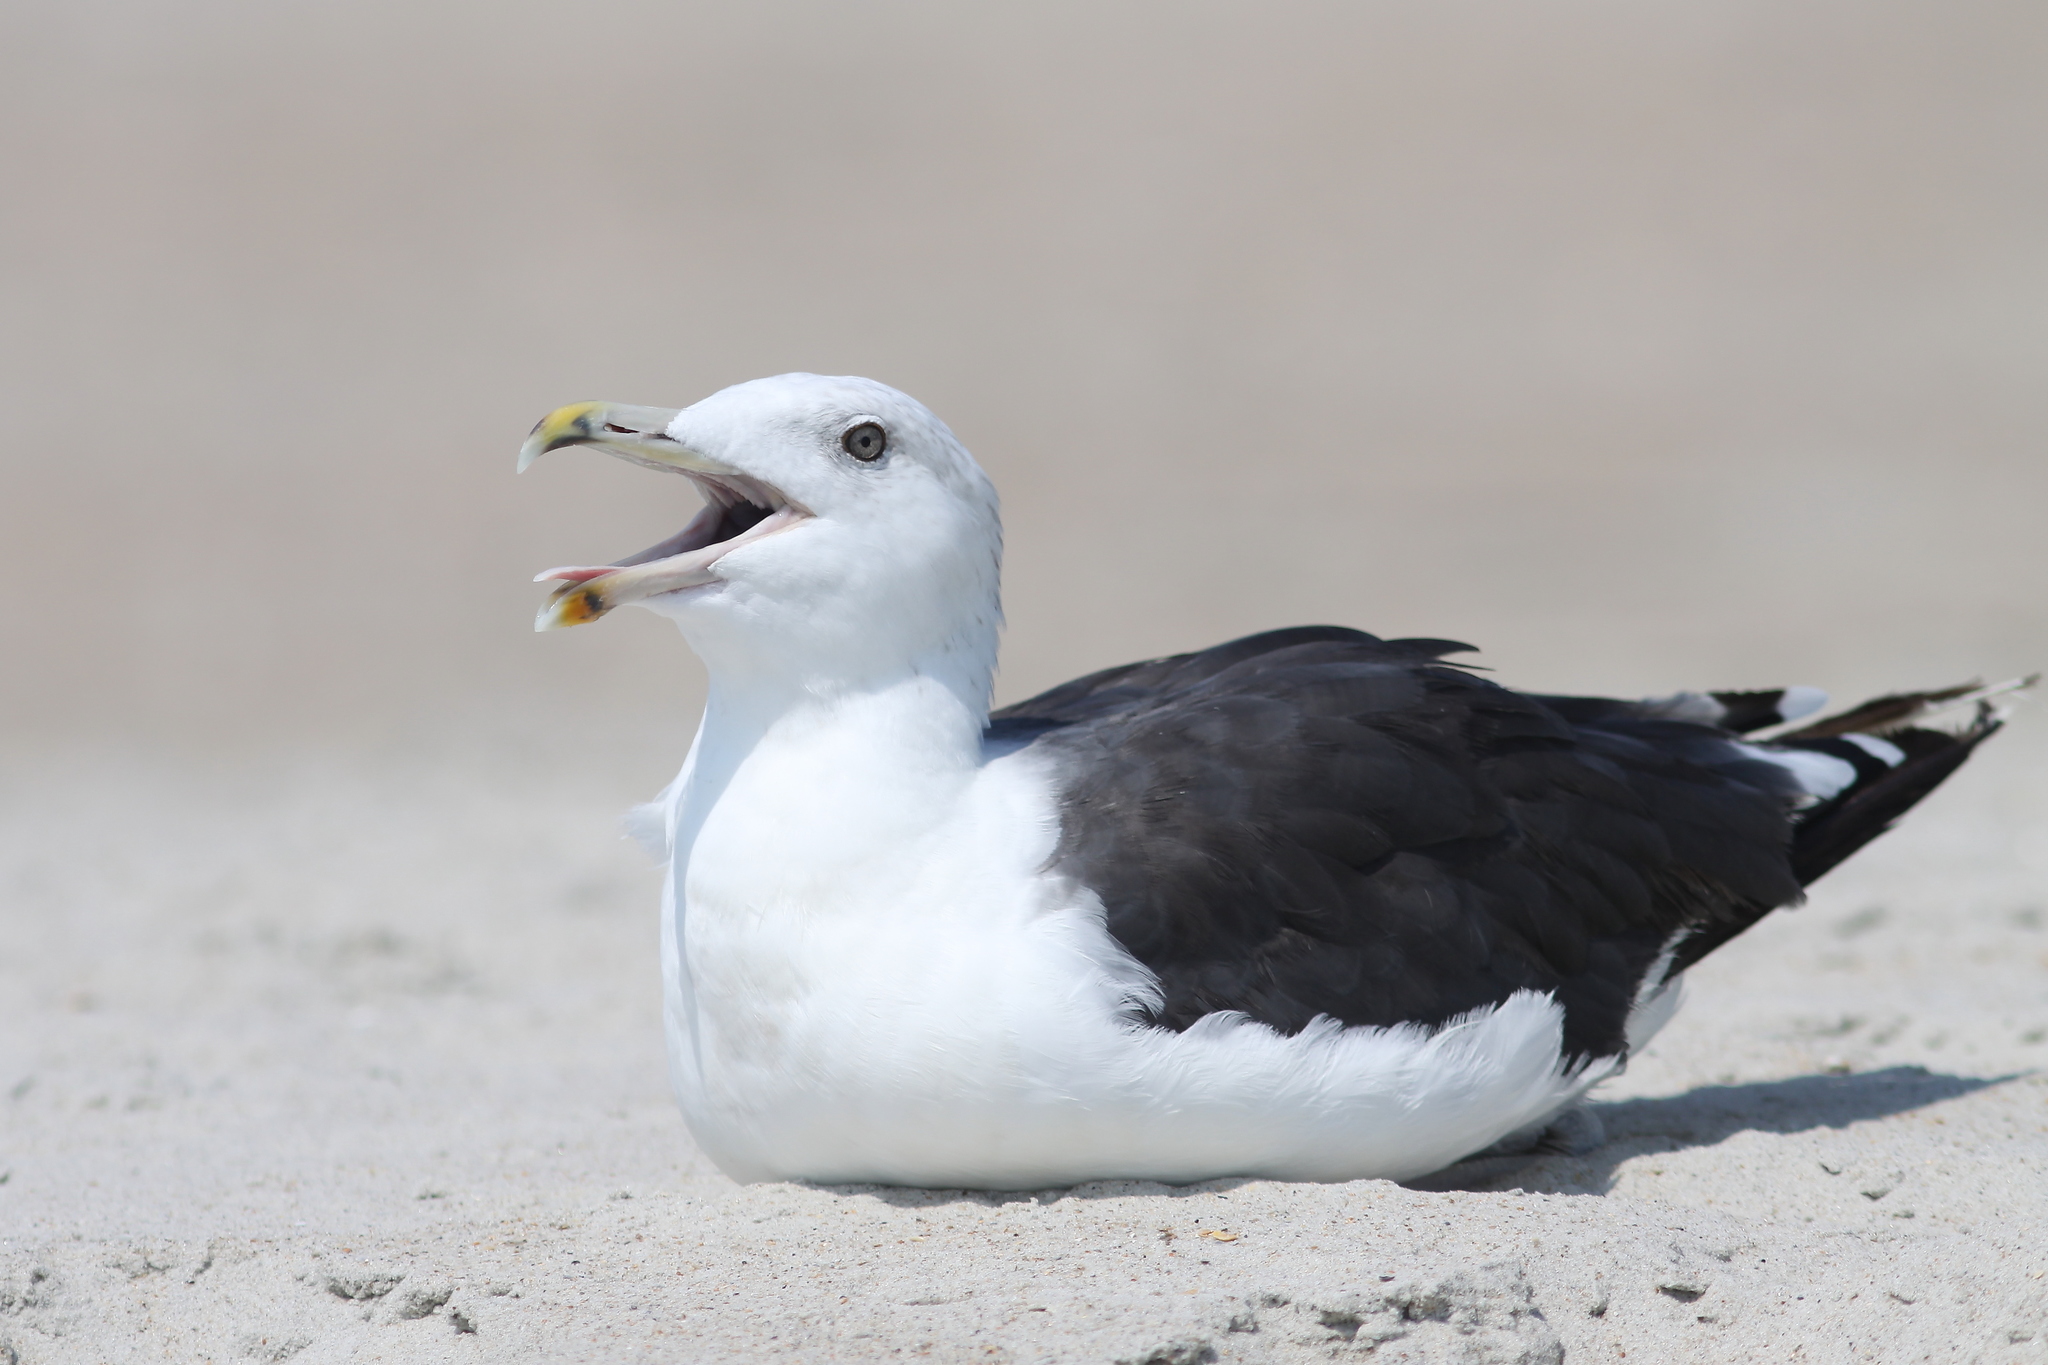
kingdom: Animalia
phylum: Chordata
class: Aves
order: Charadriiformes
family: Laridae
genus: Larus
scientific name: Larus marinus
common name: Great black-backed gull
